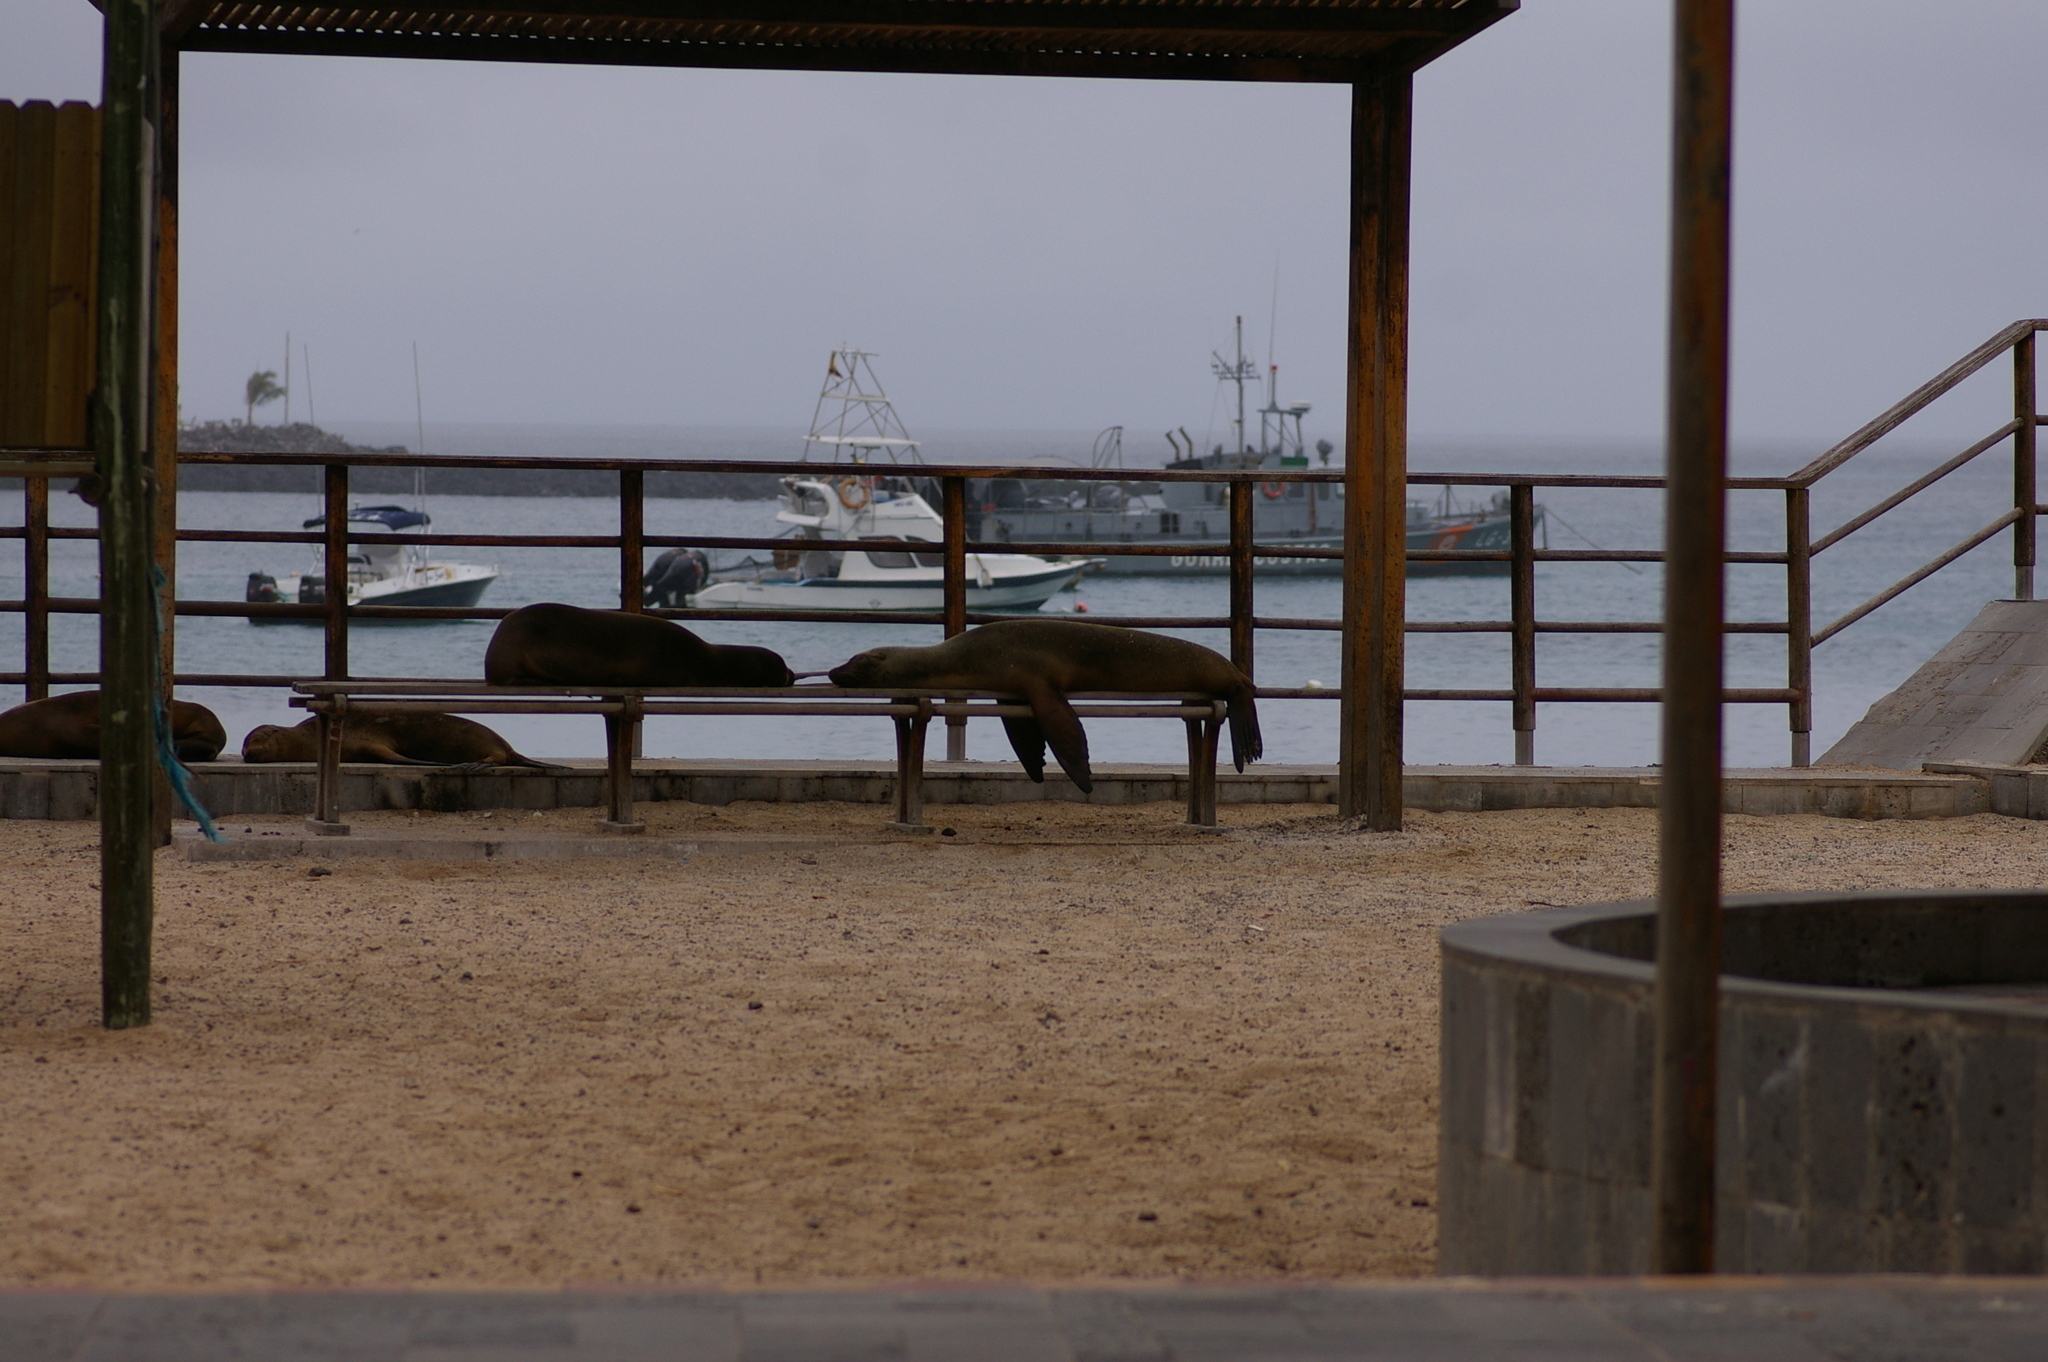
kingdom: Animalia
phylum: Chordata
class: Mammalia
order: Carnivora
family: Otariidae
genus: Zalophus
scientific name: Zalophus wollebaeki
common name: Galapagos sea lion
